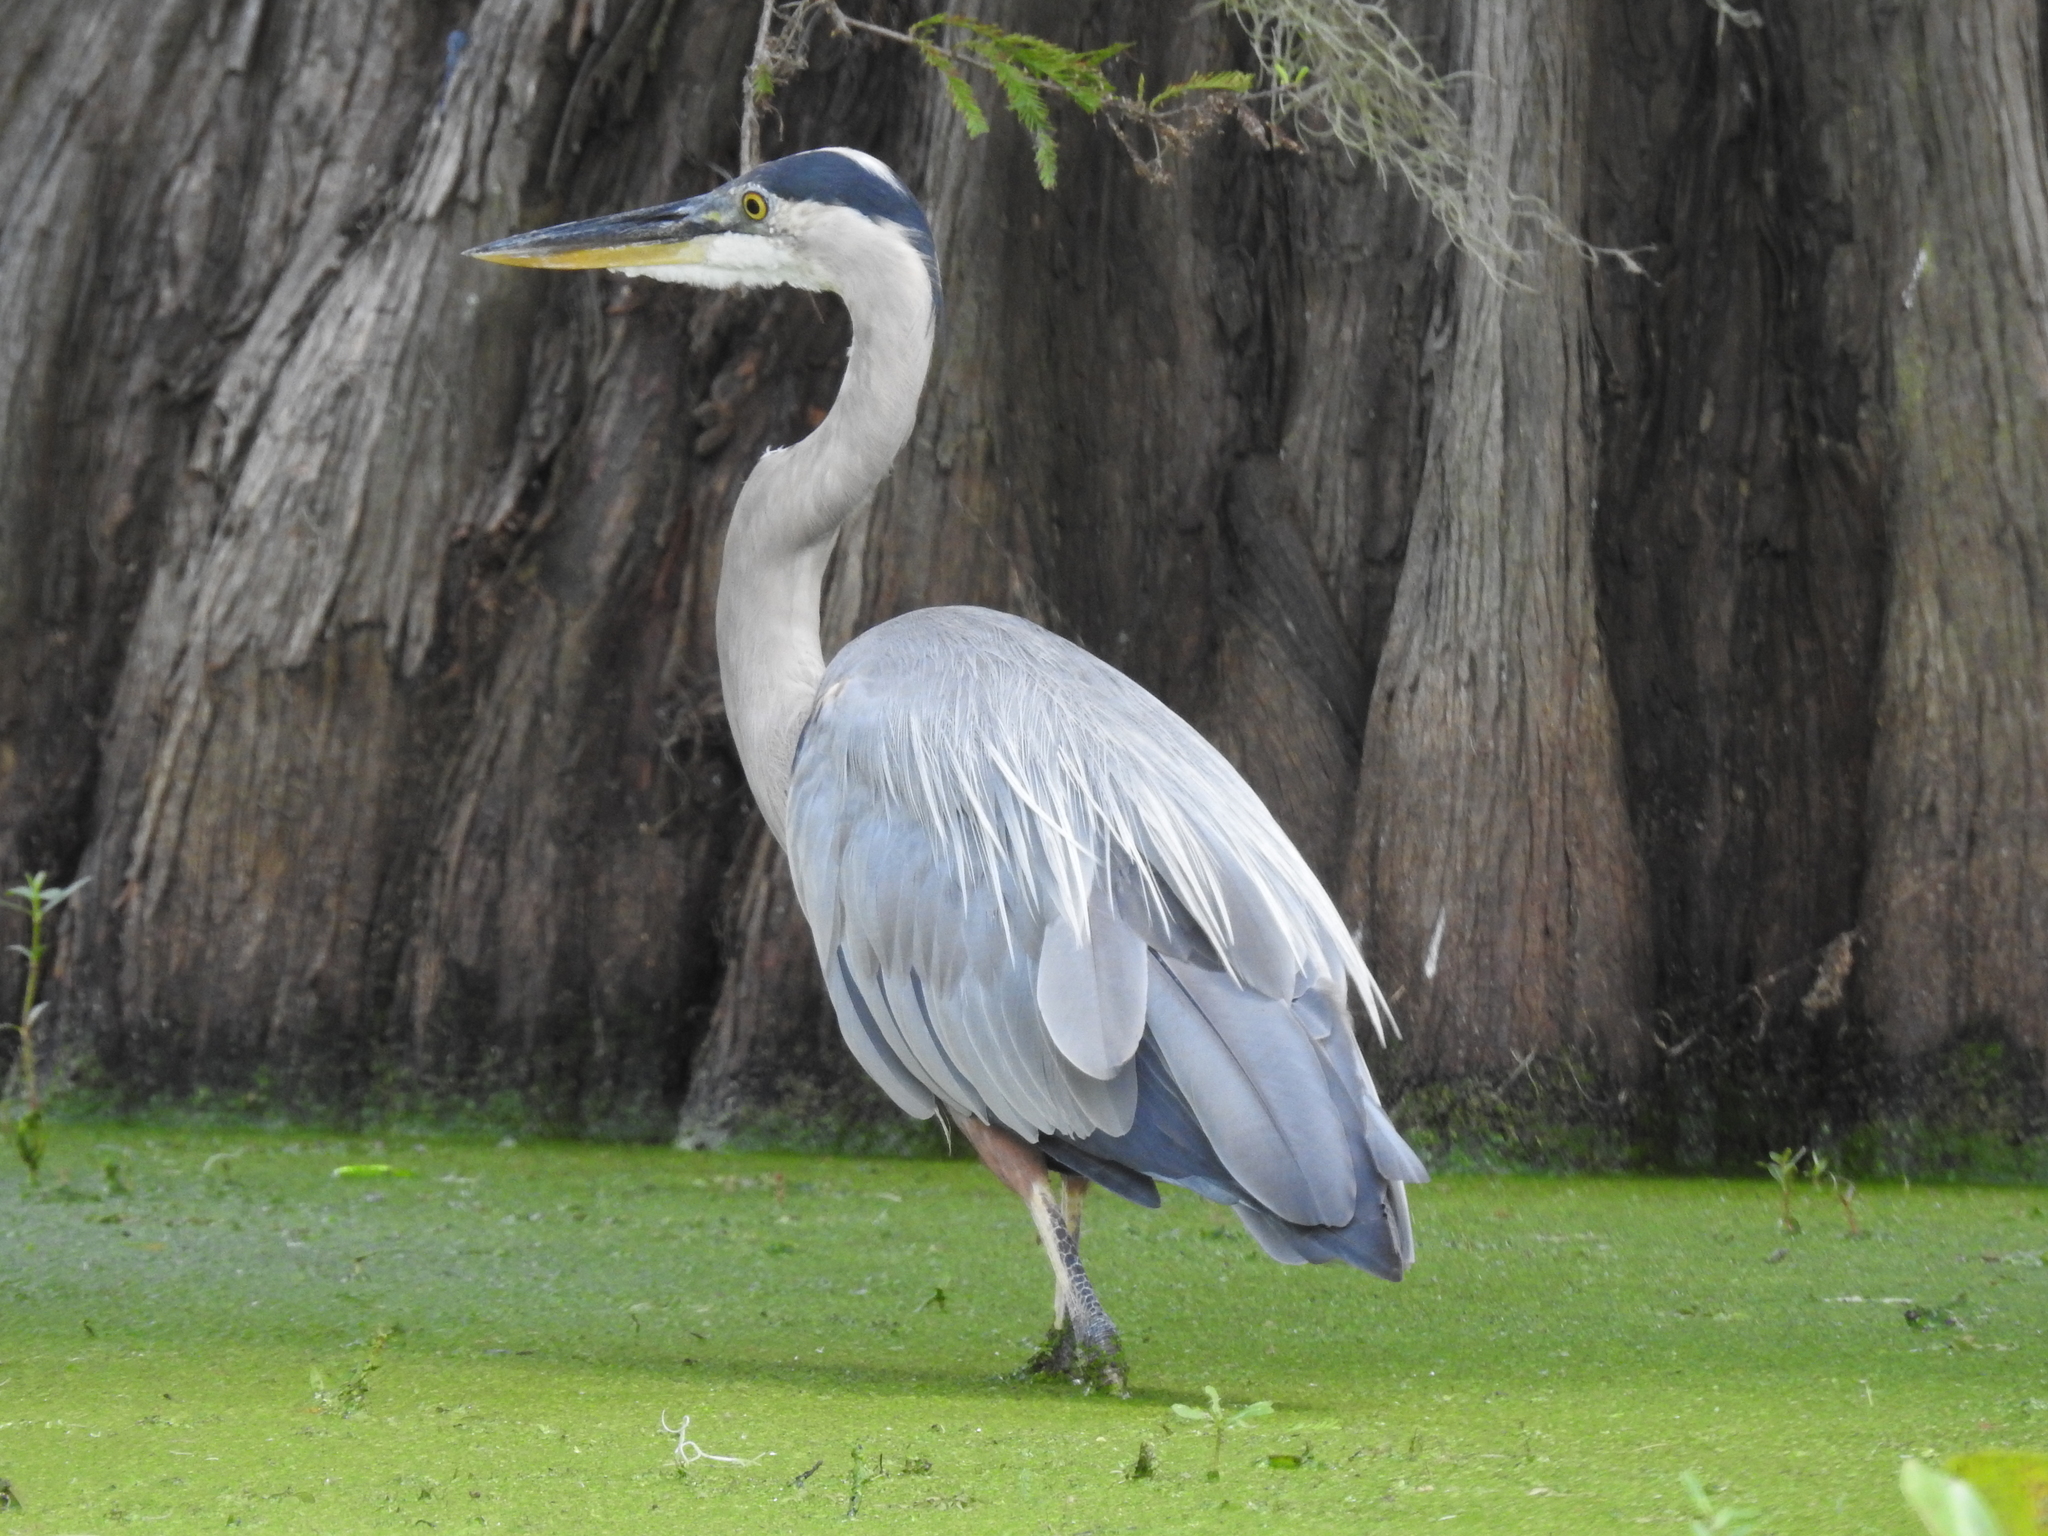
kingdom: Animalia
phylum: Chordata
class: Aves
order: Pelecaniformes
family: Ardeidae
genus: Ardea
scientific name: Ardea herodias
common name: Great blue heron
